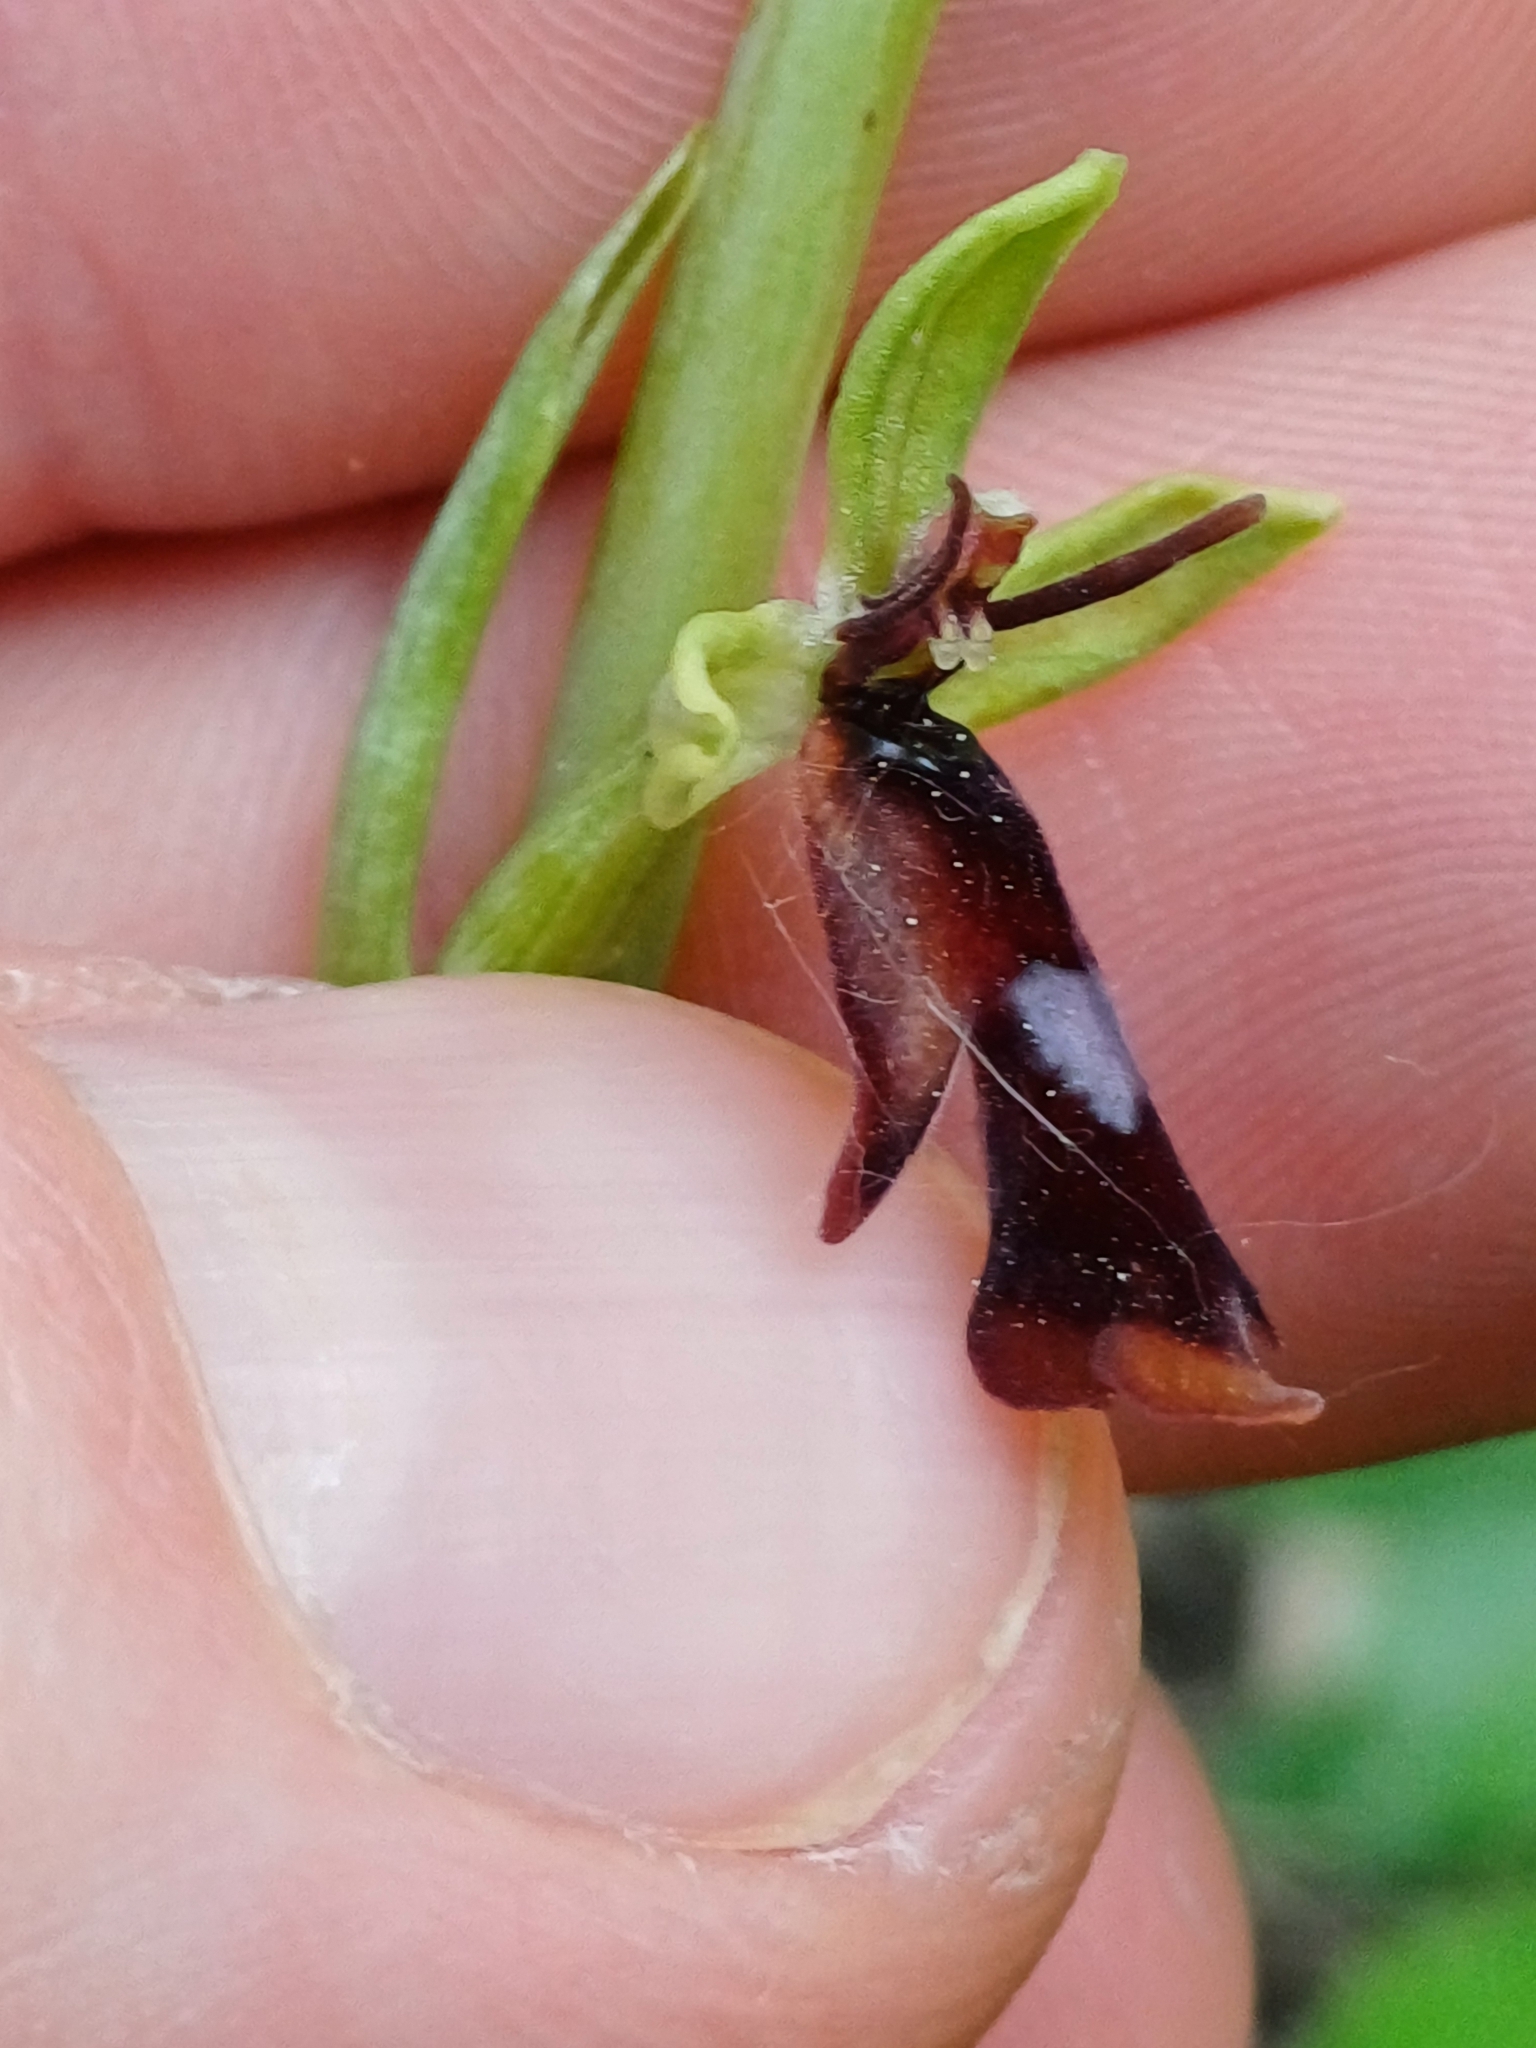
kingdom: Plantae
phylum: Tracheophyta
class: Liliopsida
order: Asparagales
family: Orchidaceae
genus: Ophrys
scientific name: Ophrys insectifera
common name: Fly orchid
